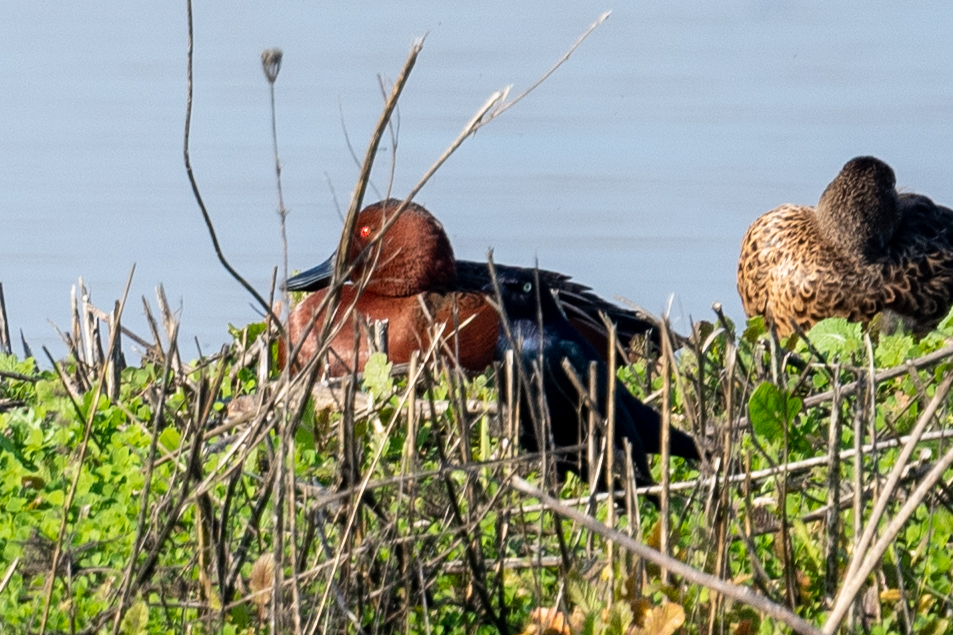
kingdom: Animalia
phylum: Chordata
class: Aves
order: Anseriformes
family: Anatidae
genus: Spatula
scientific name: Spatula cyanoptera
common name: Cinnamon teal
